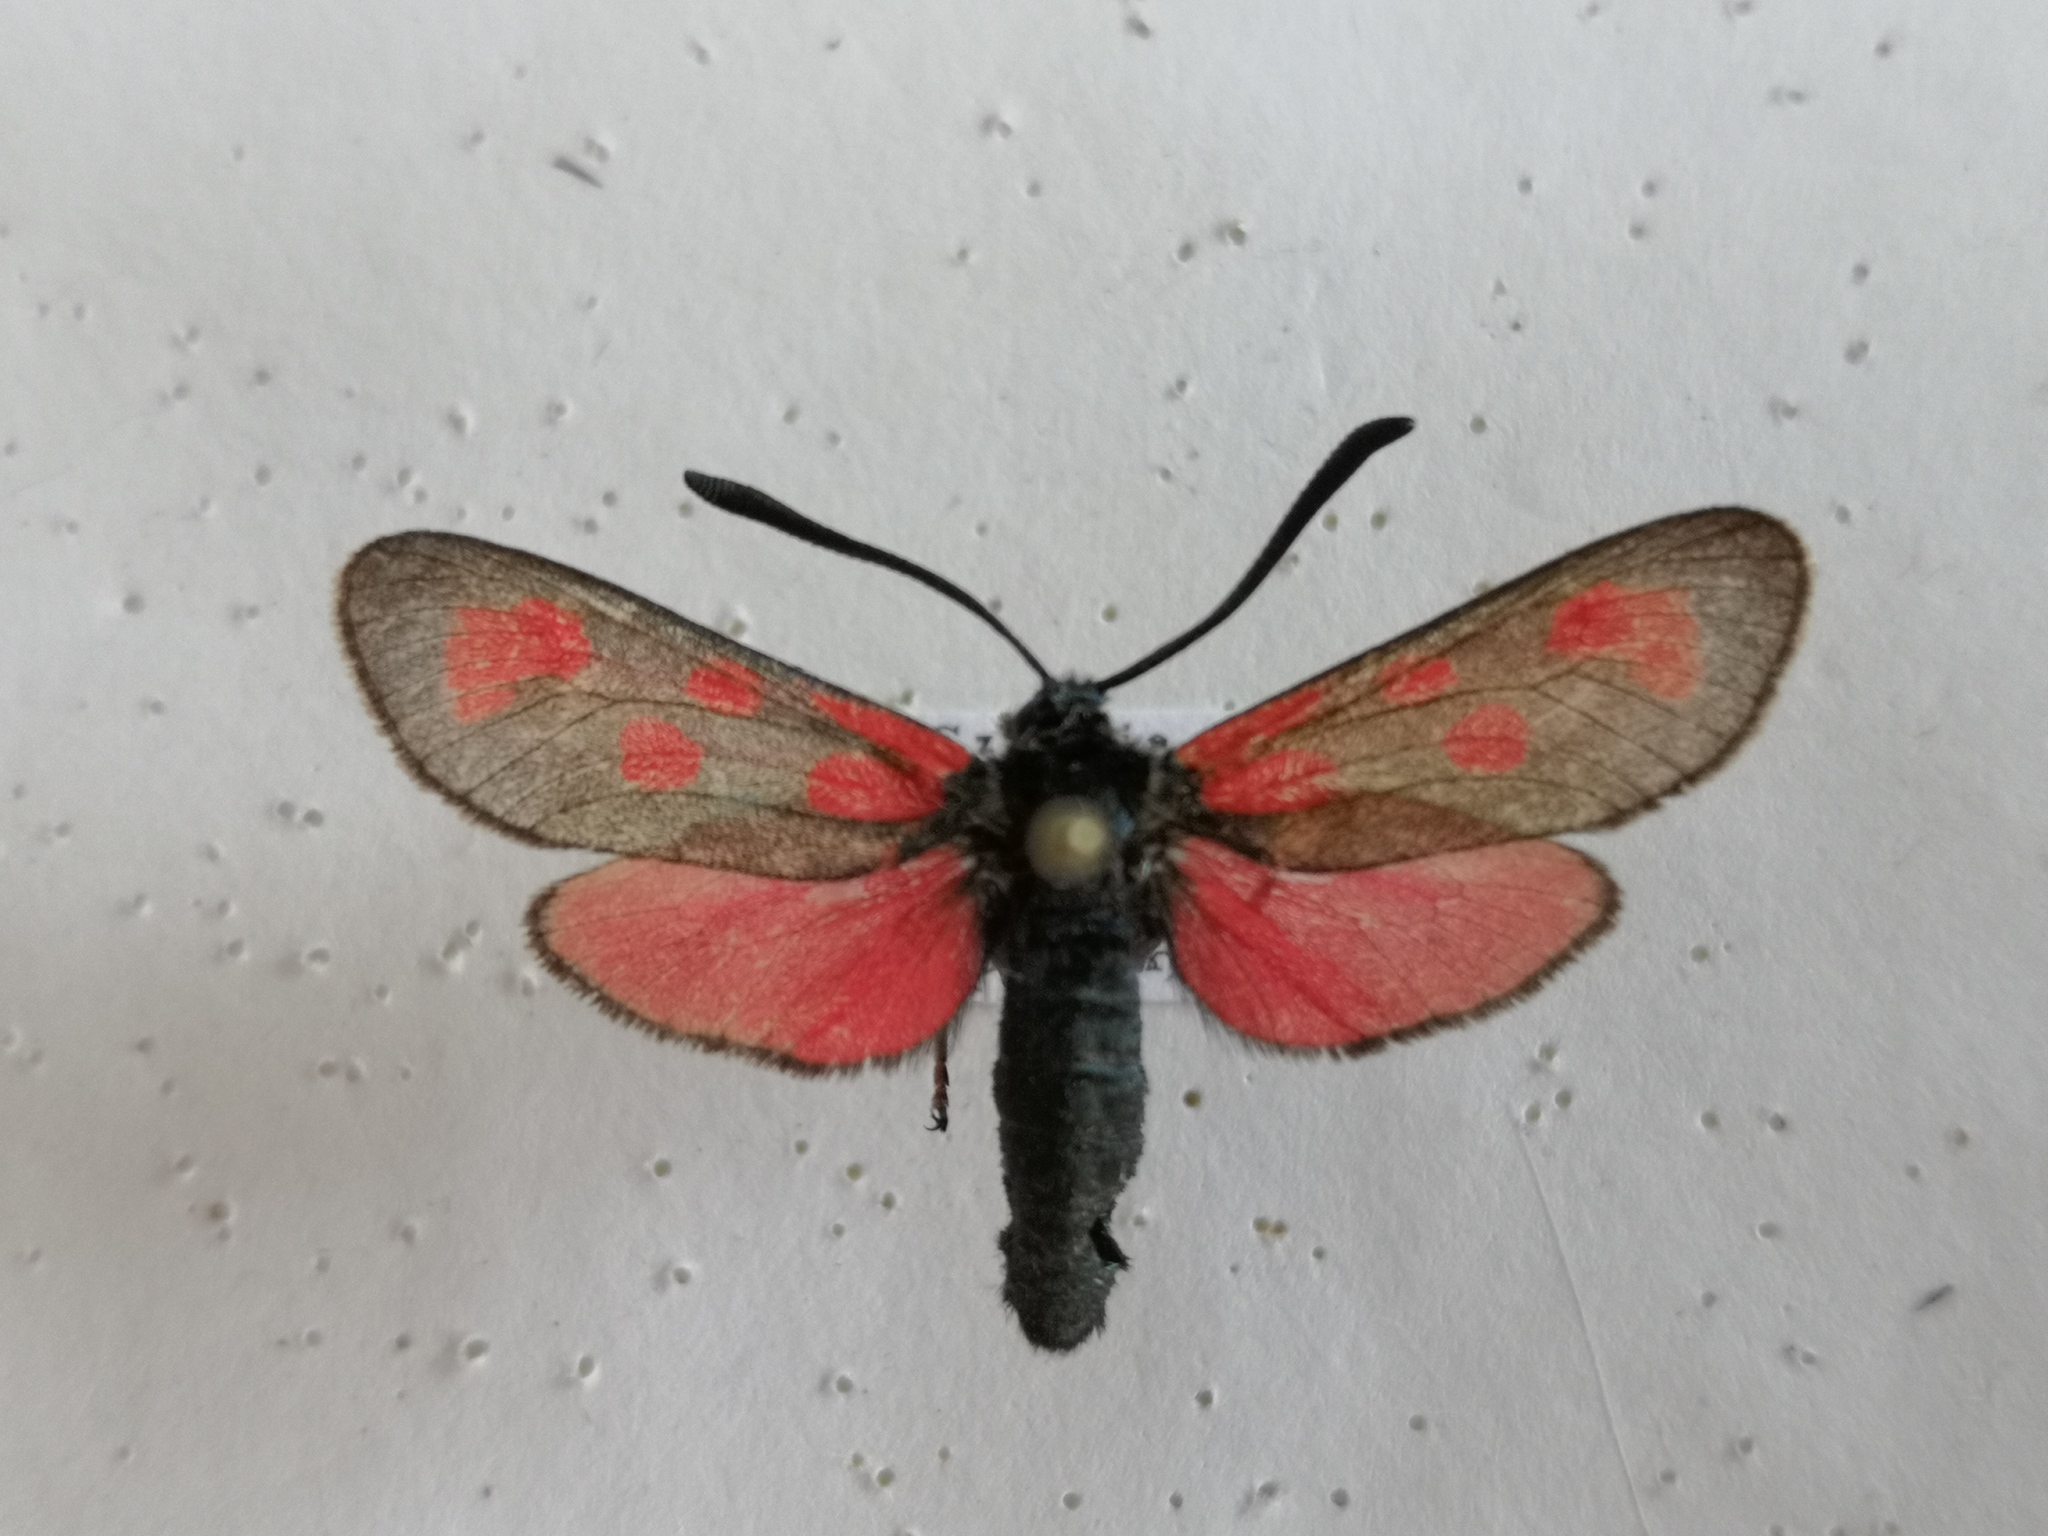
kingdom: Animalia
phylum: Arthropoda
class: Insecta
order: Lepidoptera
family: Zygaenidae
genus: Zygaena
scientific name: Zygaena loti
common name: Slender scotch burnet
